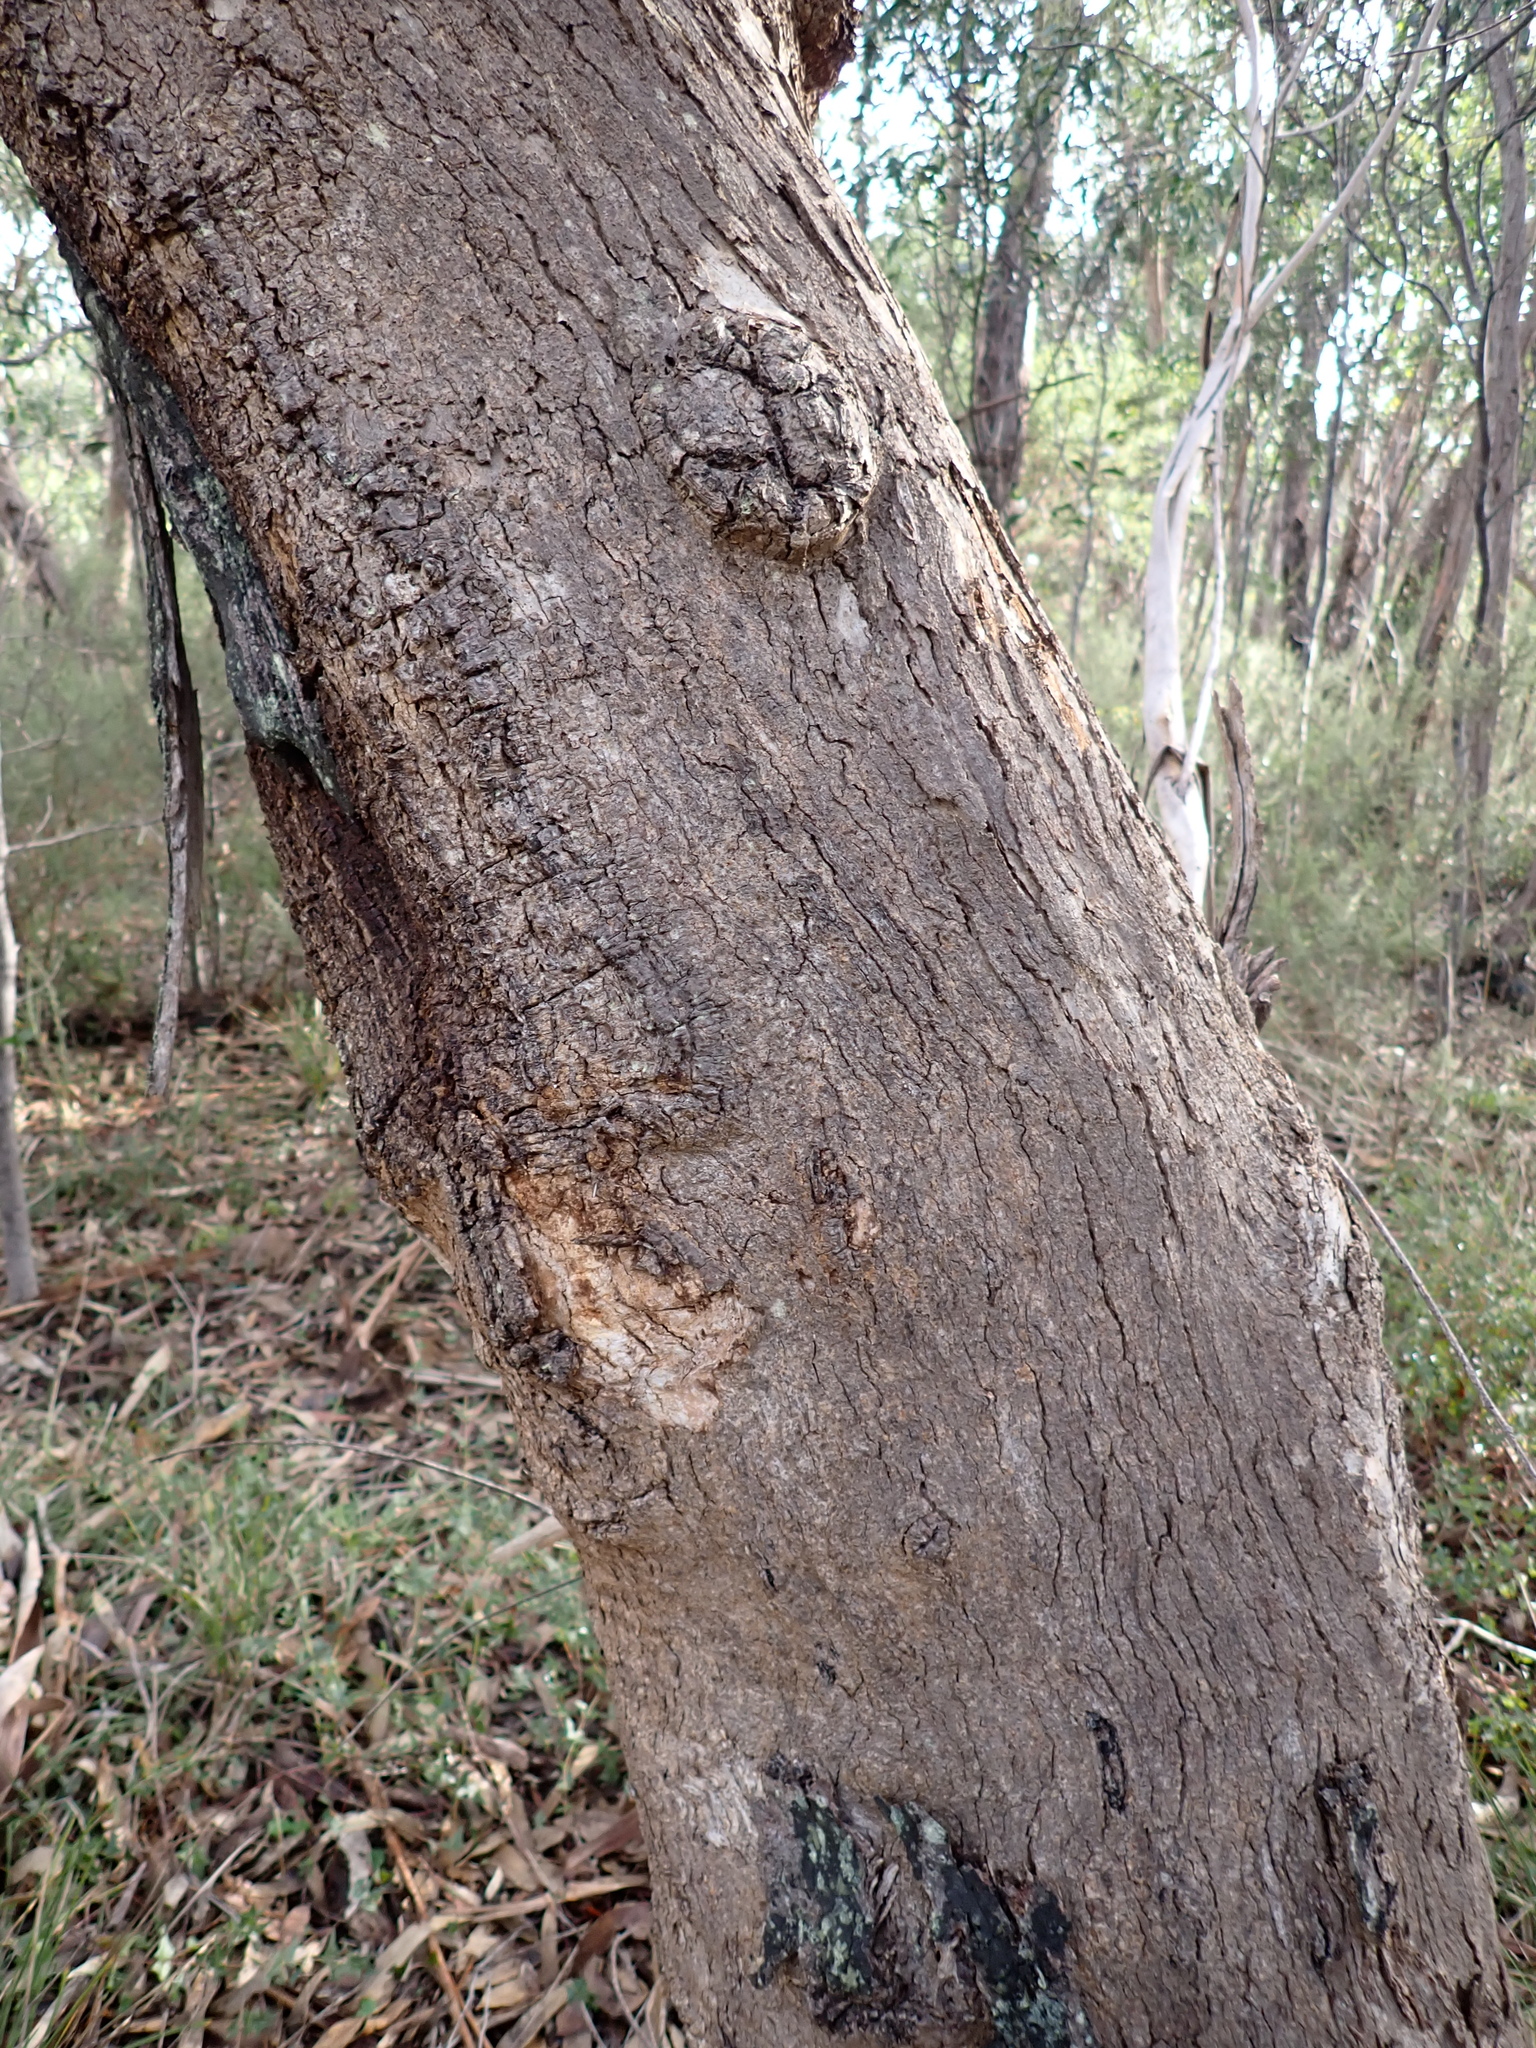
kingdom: Plantae
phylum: Tracheophyta
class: Magnoliopsida
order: Myrtales
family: Myrtaceae
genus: Eucalyptus
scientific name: Eucalyptus goniocalyx
